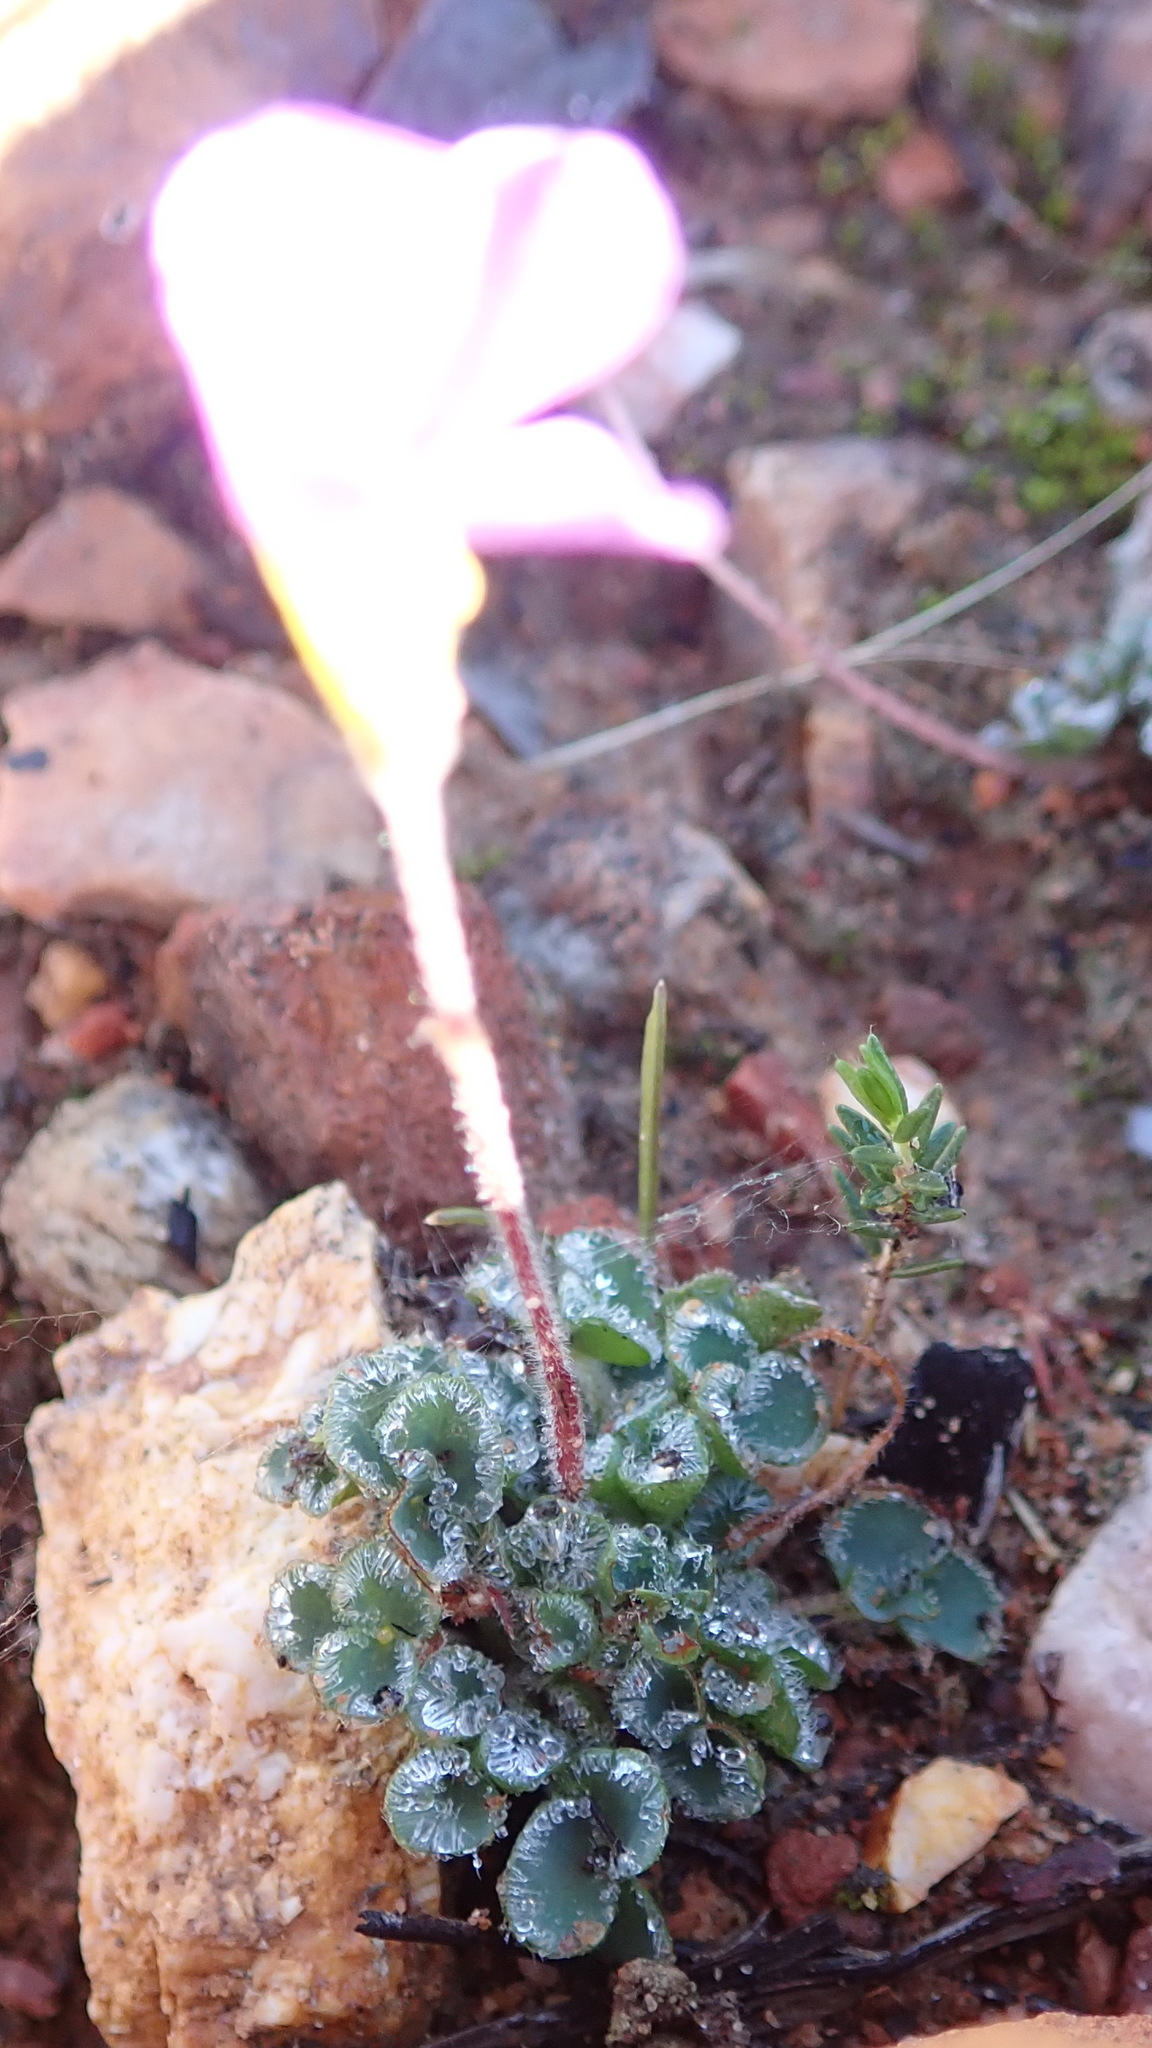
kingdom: Plantae
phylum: Tracheophyta
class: Magnoliopsida
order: Oxalidales
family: Oxalidaceae
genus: Oxalis
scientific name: Oxalis imbricata
